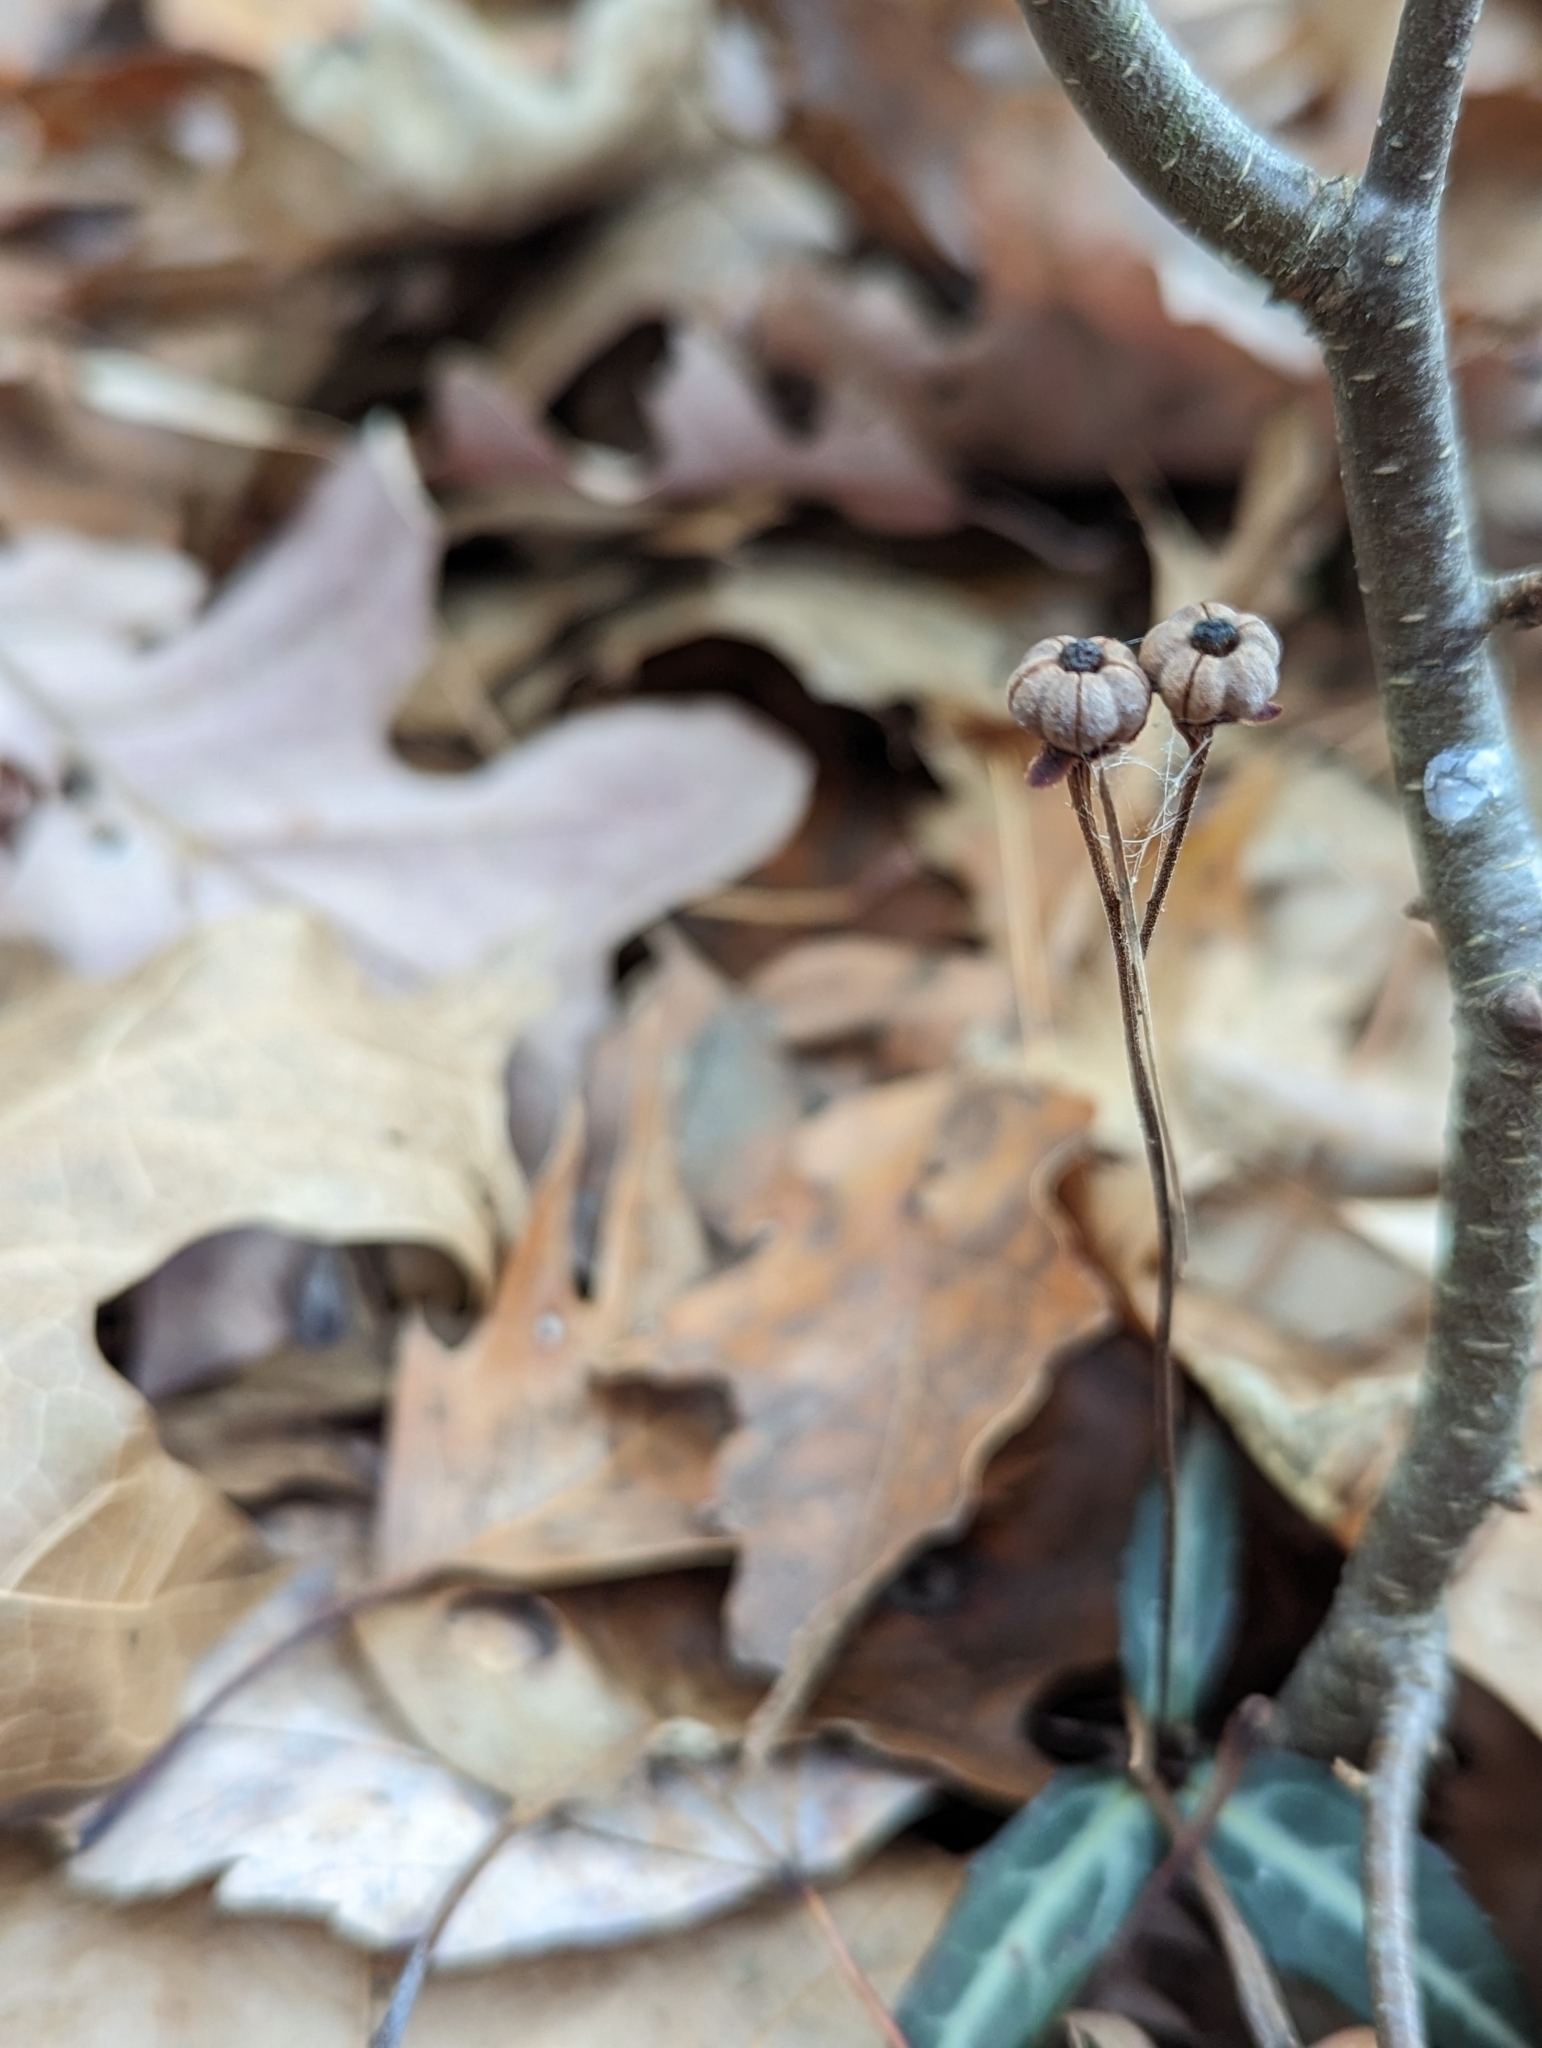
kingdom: Plantae
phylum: Tracheophyta
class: Magnoliopsida
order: Ericales
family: Ericaceae
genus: Chimaphila
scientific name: Chimaphila maculata
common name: Spotted pipsissewa
